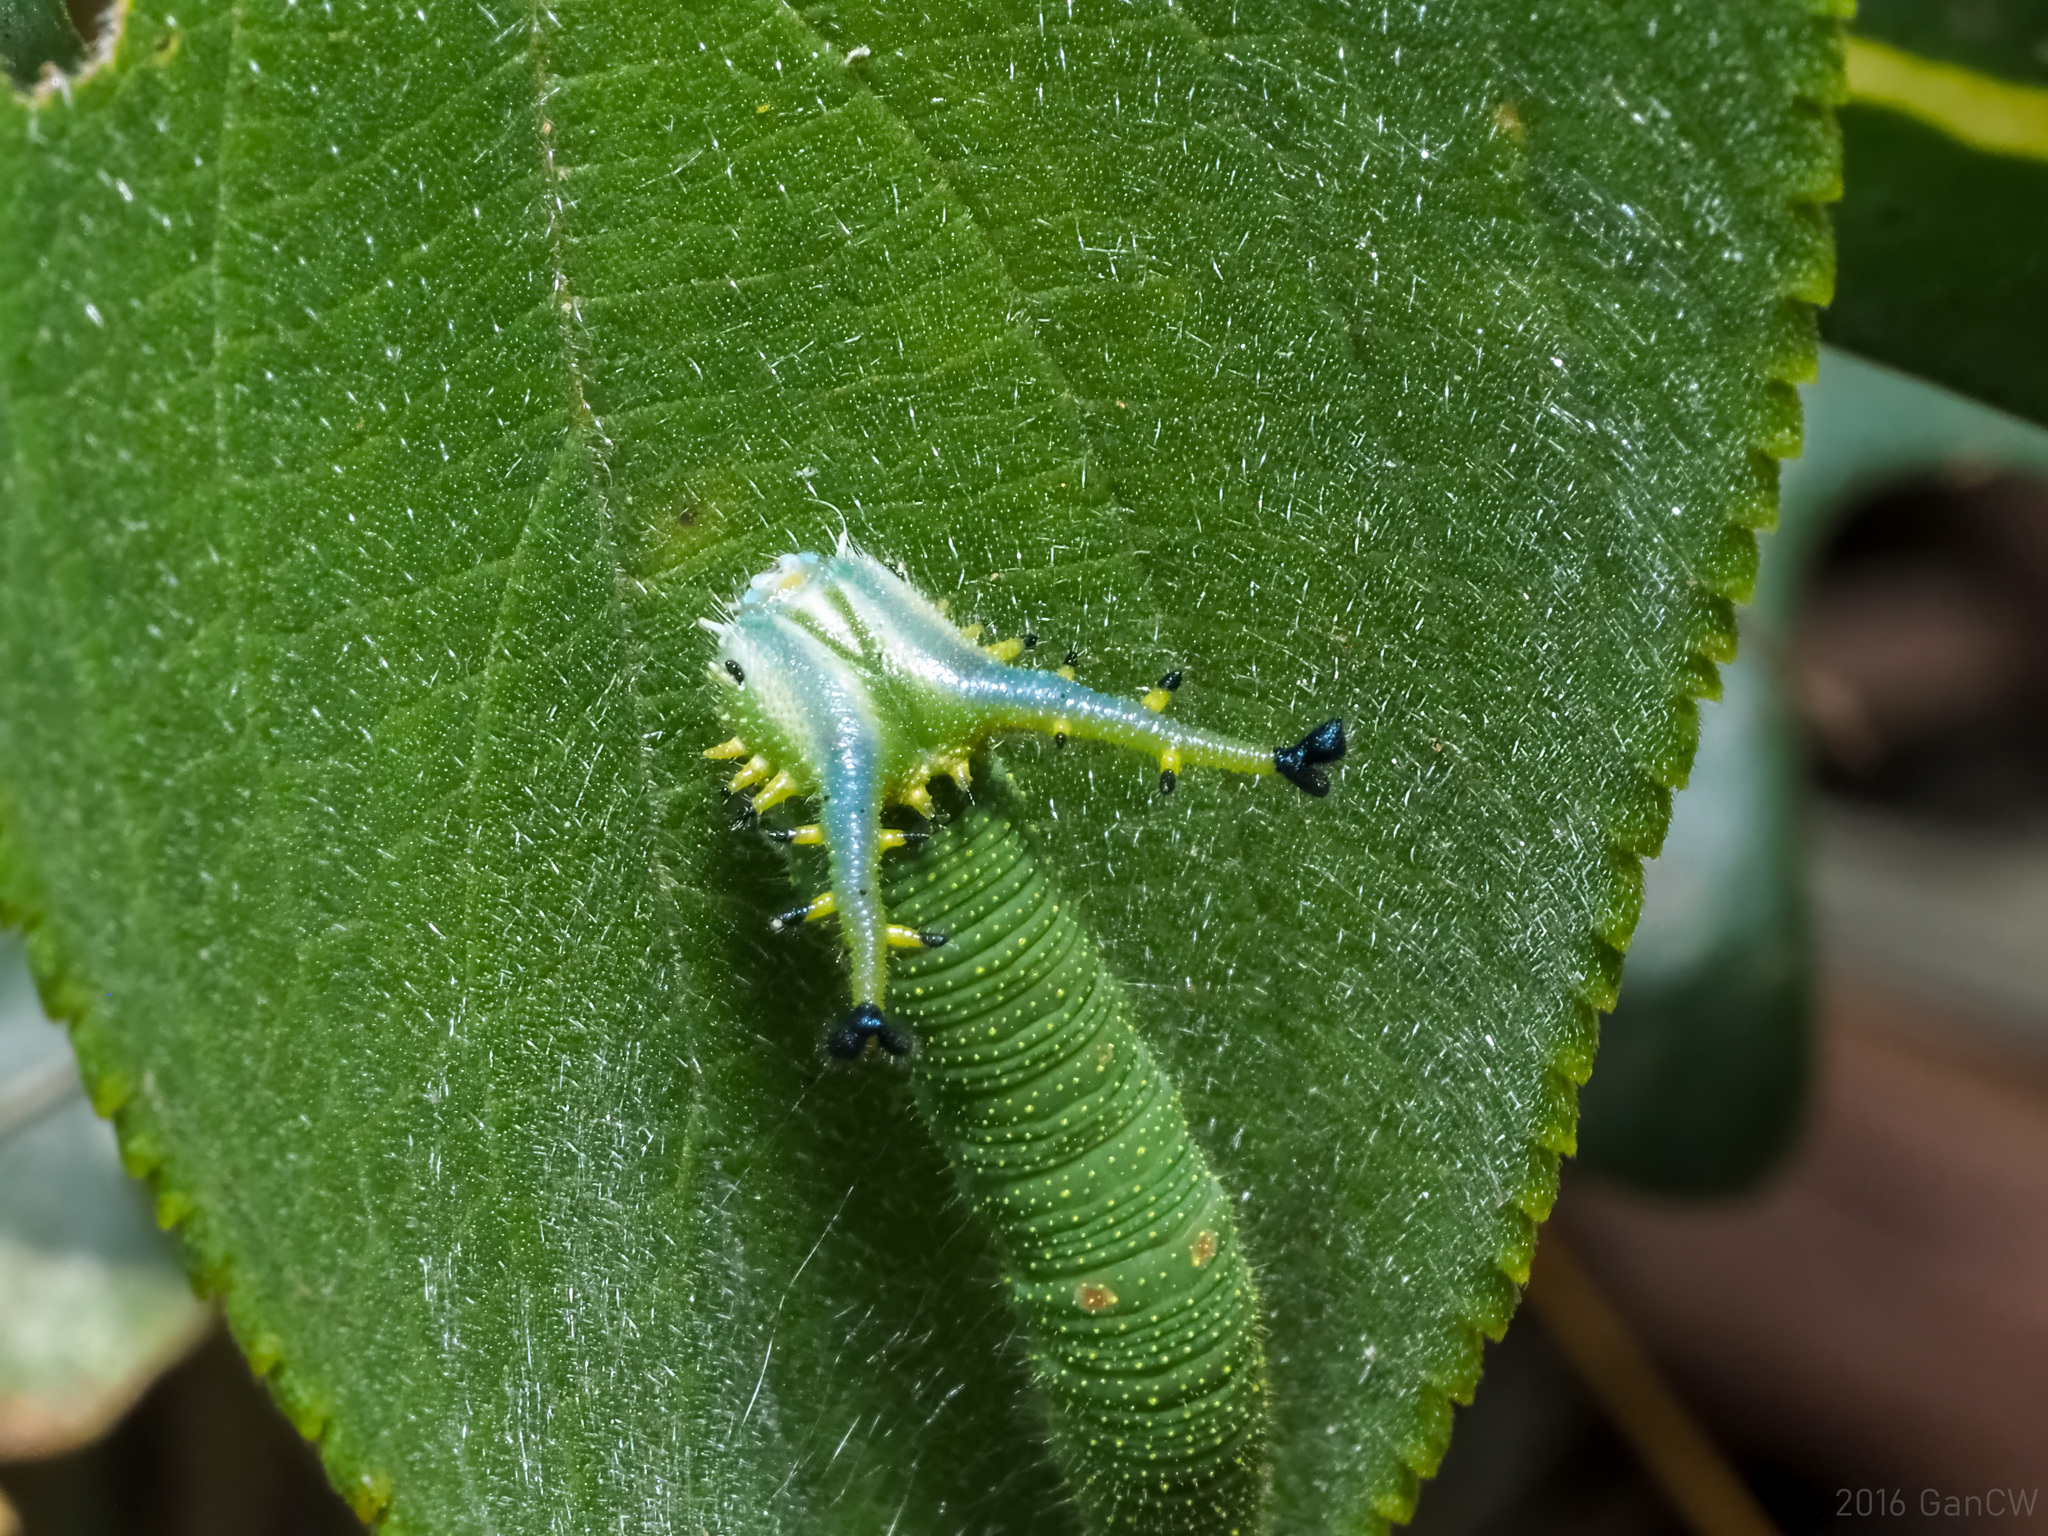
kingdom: Animalia
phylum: Arthropoda
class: Insecta
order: Lepidoptera
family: Nymphalidae
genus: Euripus
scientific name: Euripus nyctelius
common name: Courtesan
